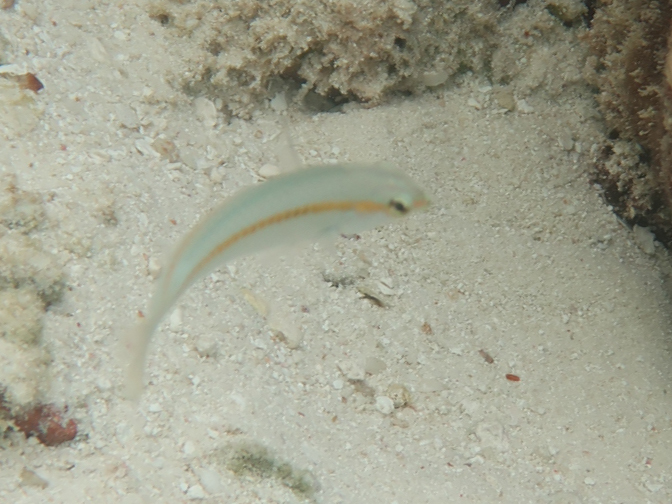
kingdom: Animalia
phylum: Chordata
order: Perciformes
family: Labridae
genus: Halichoeres
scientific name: Halichoeres scapularis
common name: Brownbanded wrasse
